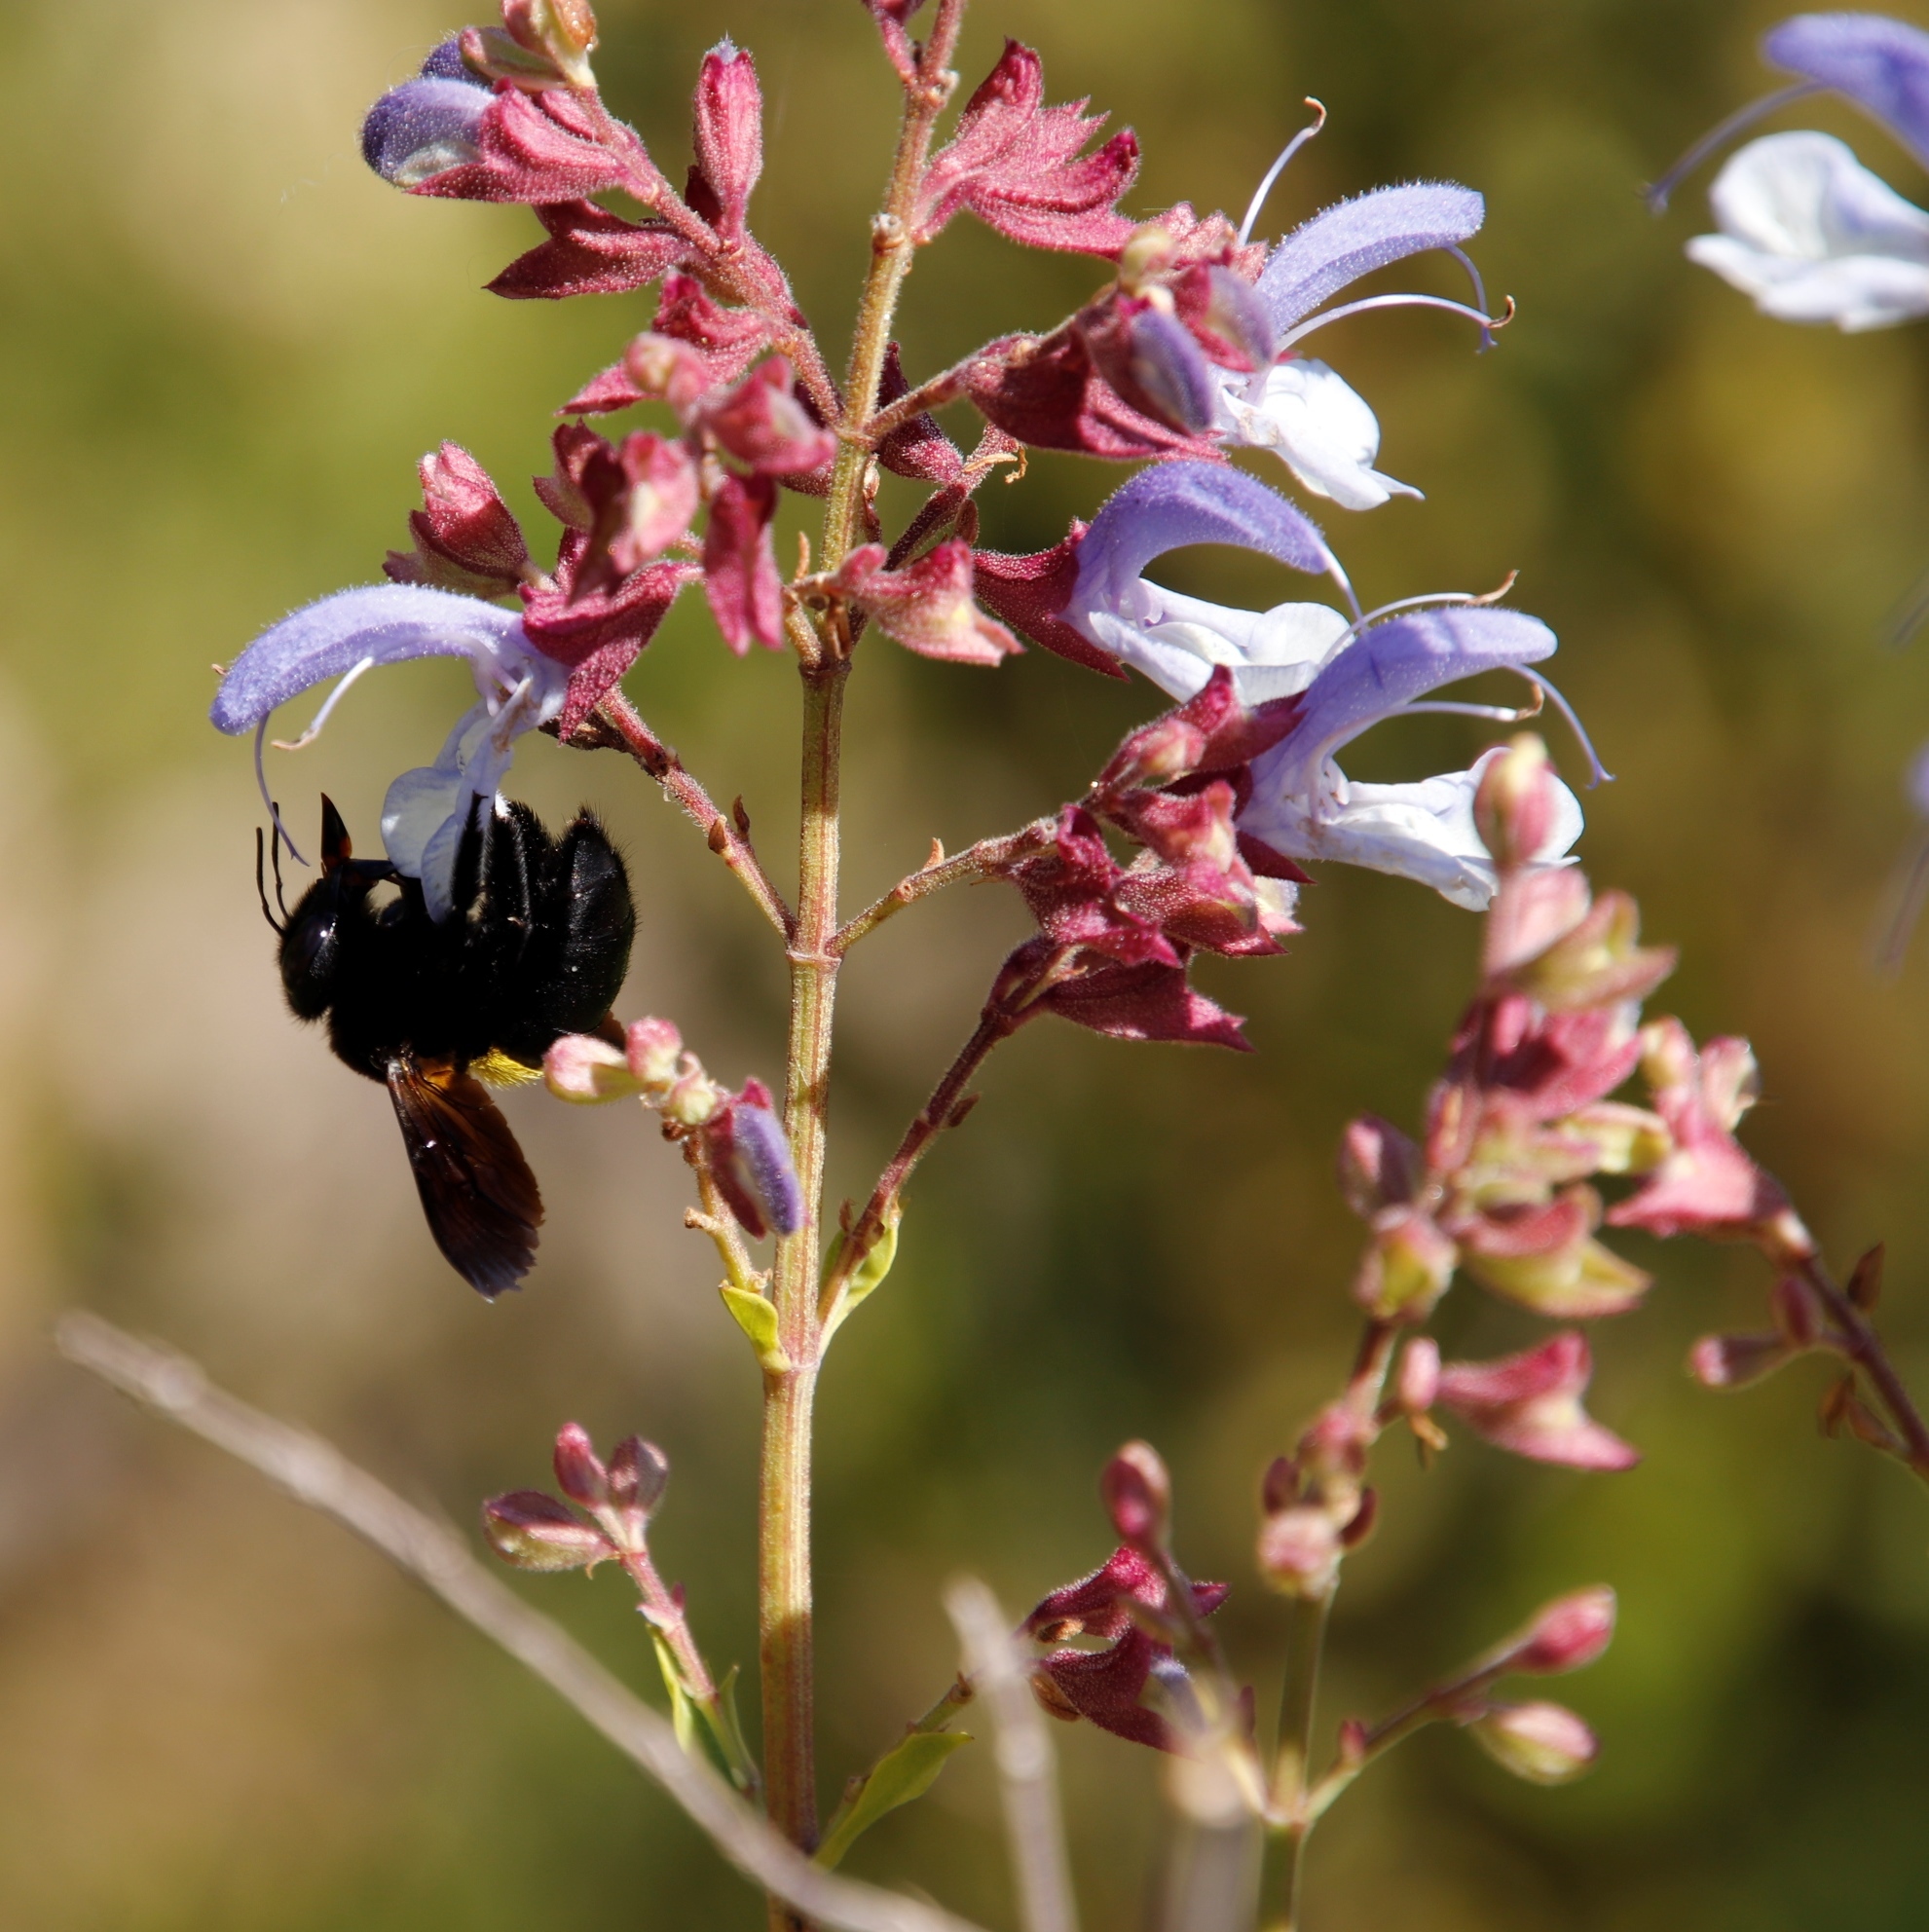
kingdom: Plantae
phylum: Tracheophyta
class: Magnoliopsida
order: Lamiales
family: Lamiaceae
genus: Salvia
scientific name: Salvia chamelaeagnea
